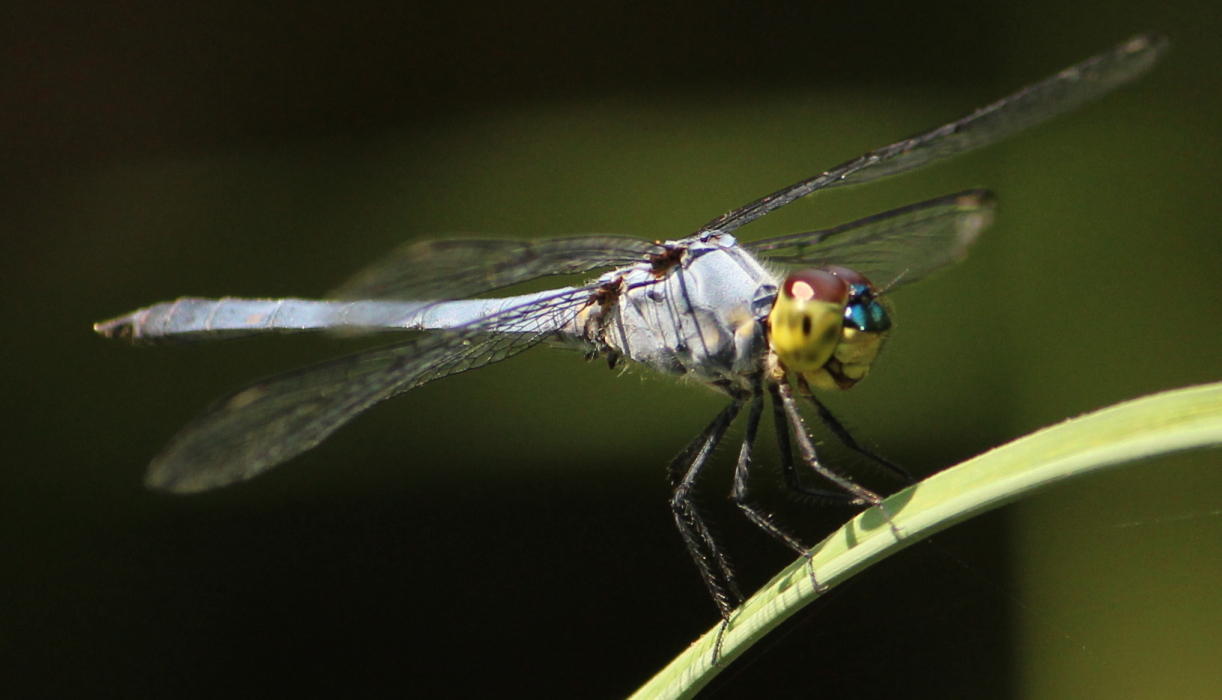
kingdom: Animalia
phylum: Arthropoda
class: Insecta
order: Odonata
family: Libellulidae
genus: Chalcostephia
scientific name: Chalcostephia flavifrons
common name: Inspector
